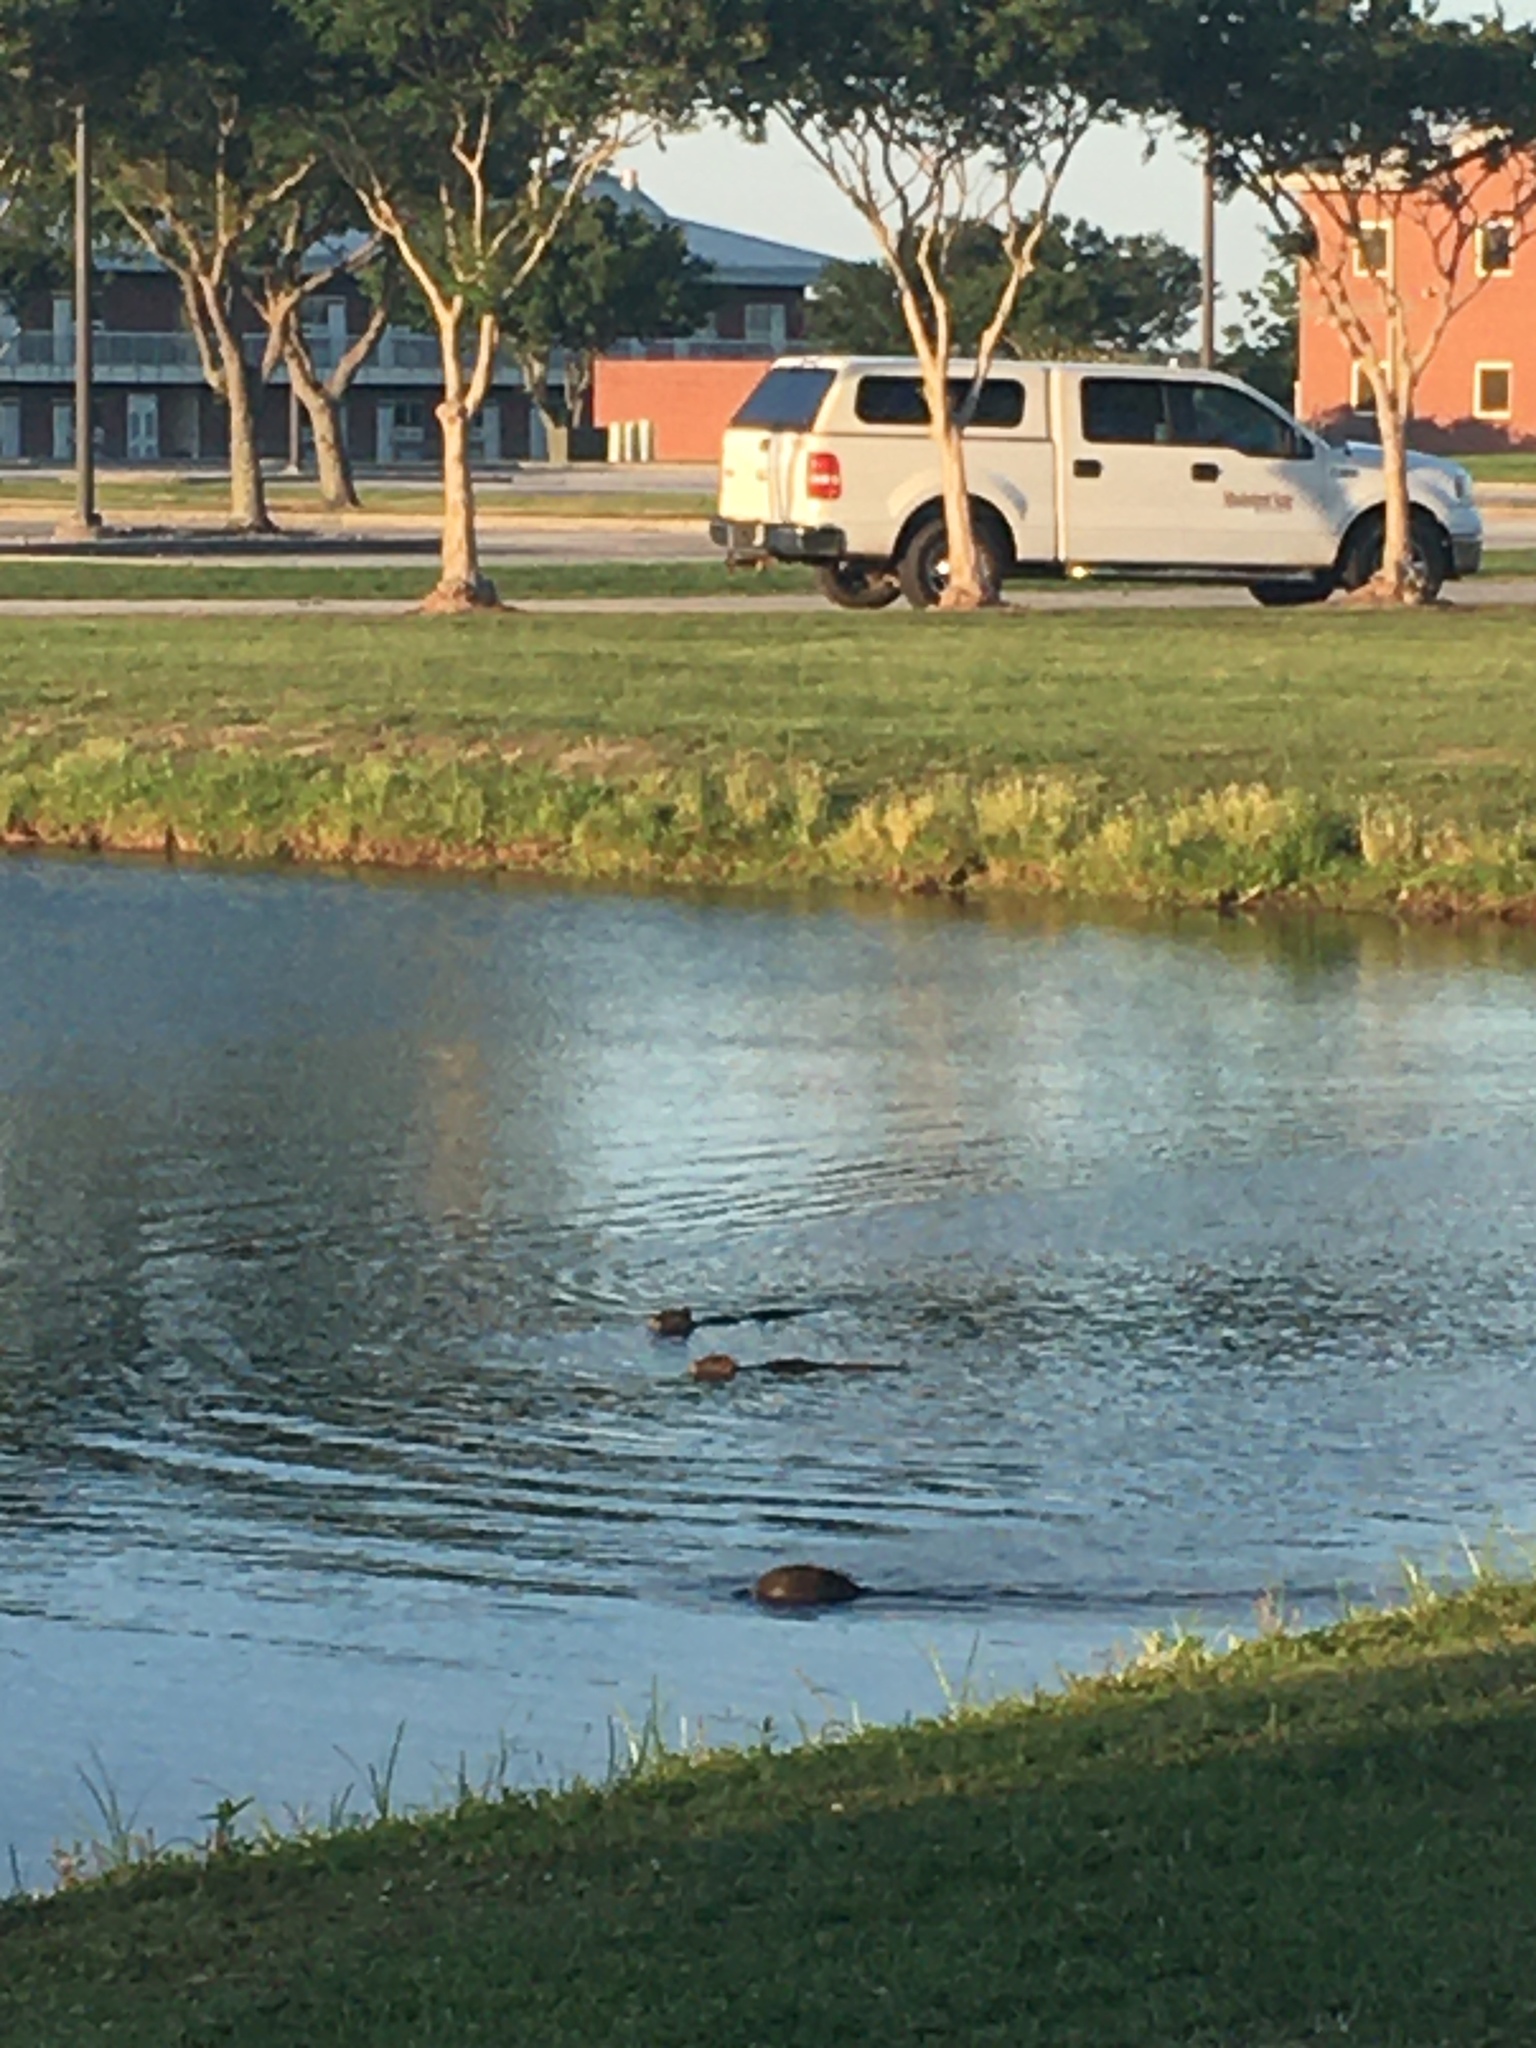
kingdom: Animalia
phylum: Chordata
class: Mammalia
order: Rodentia
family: Myocastoridae
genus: Myocastor
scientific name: Myocastor coypus
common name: Coypu
